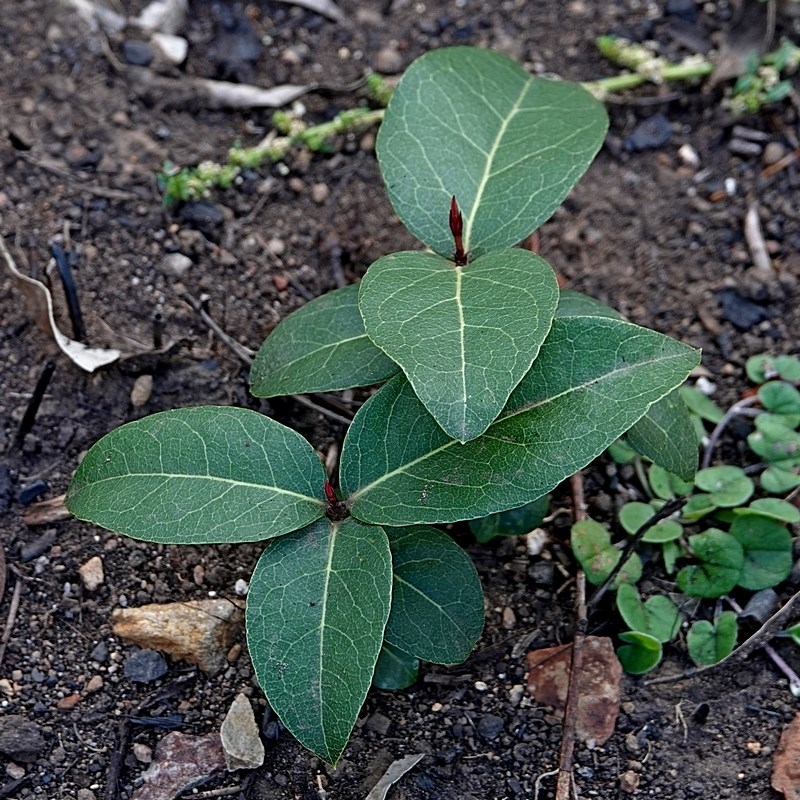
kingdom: Plantae
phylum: Tracheophyta
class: Magnoliopsida
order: Lamiales
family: Oleaceae
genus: Notelaea
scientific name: Notelaea venosa
